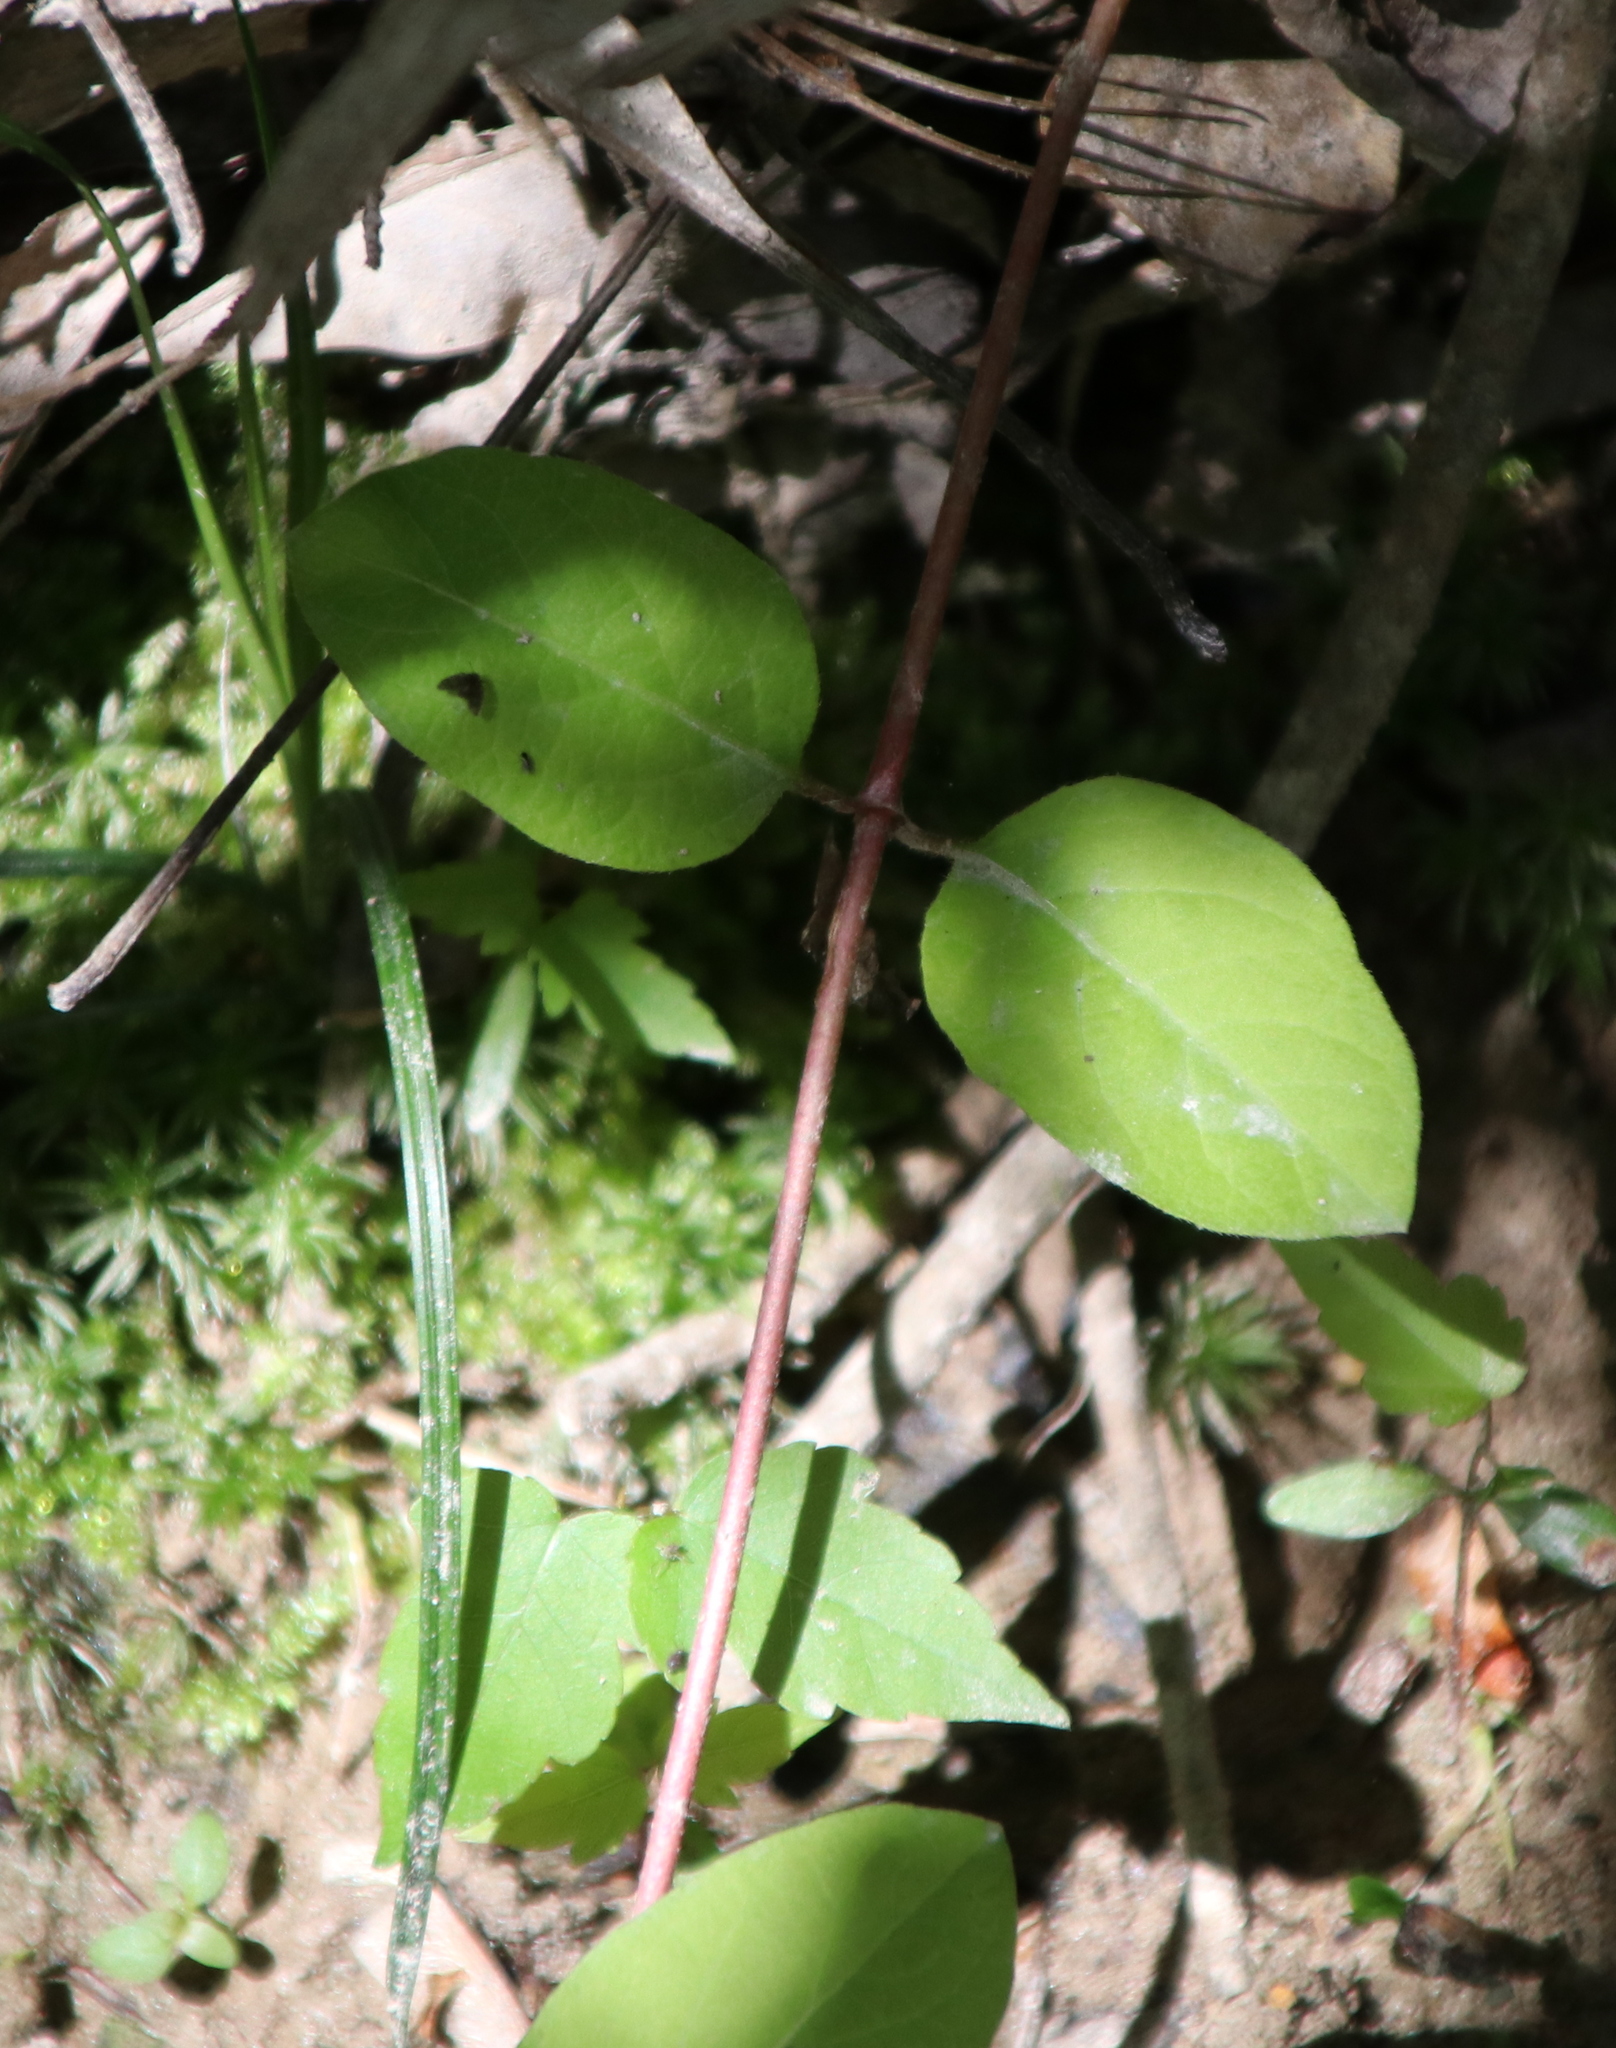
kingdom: Plantae
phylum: Tracheophyta
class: Magnoliopsida
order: Dipsacales
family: Caprifoliaceae
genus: Lonicera
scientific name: Lonicera japonica
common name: Japanese honeysuckle
